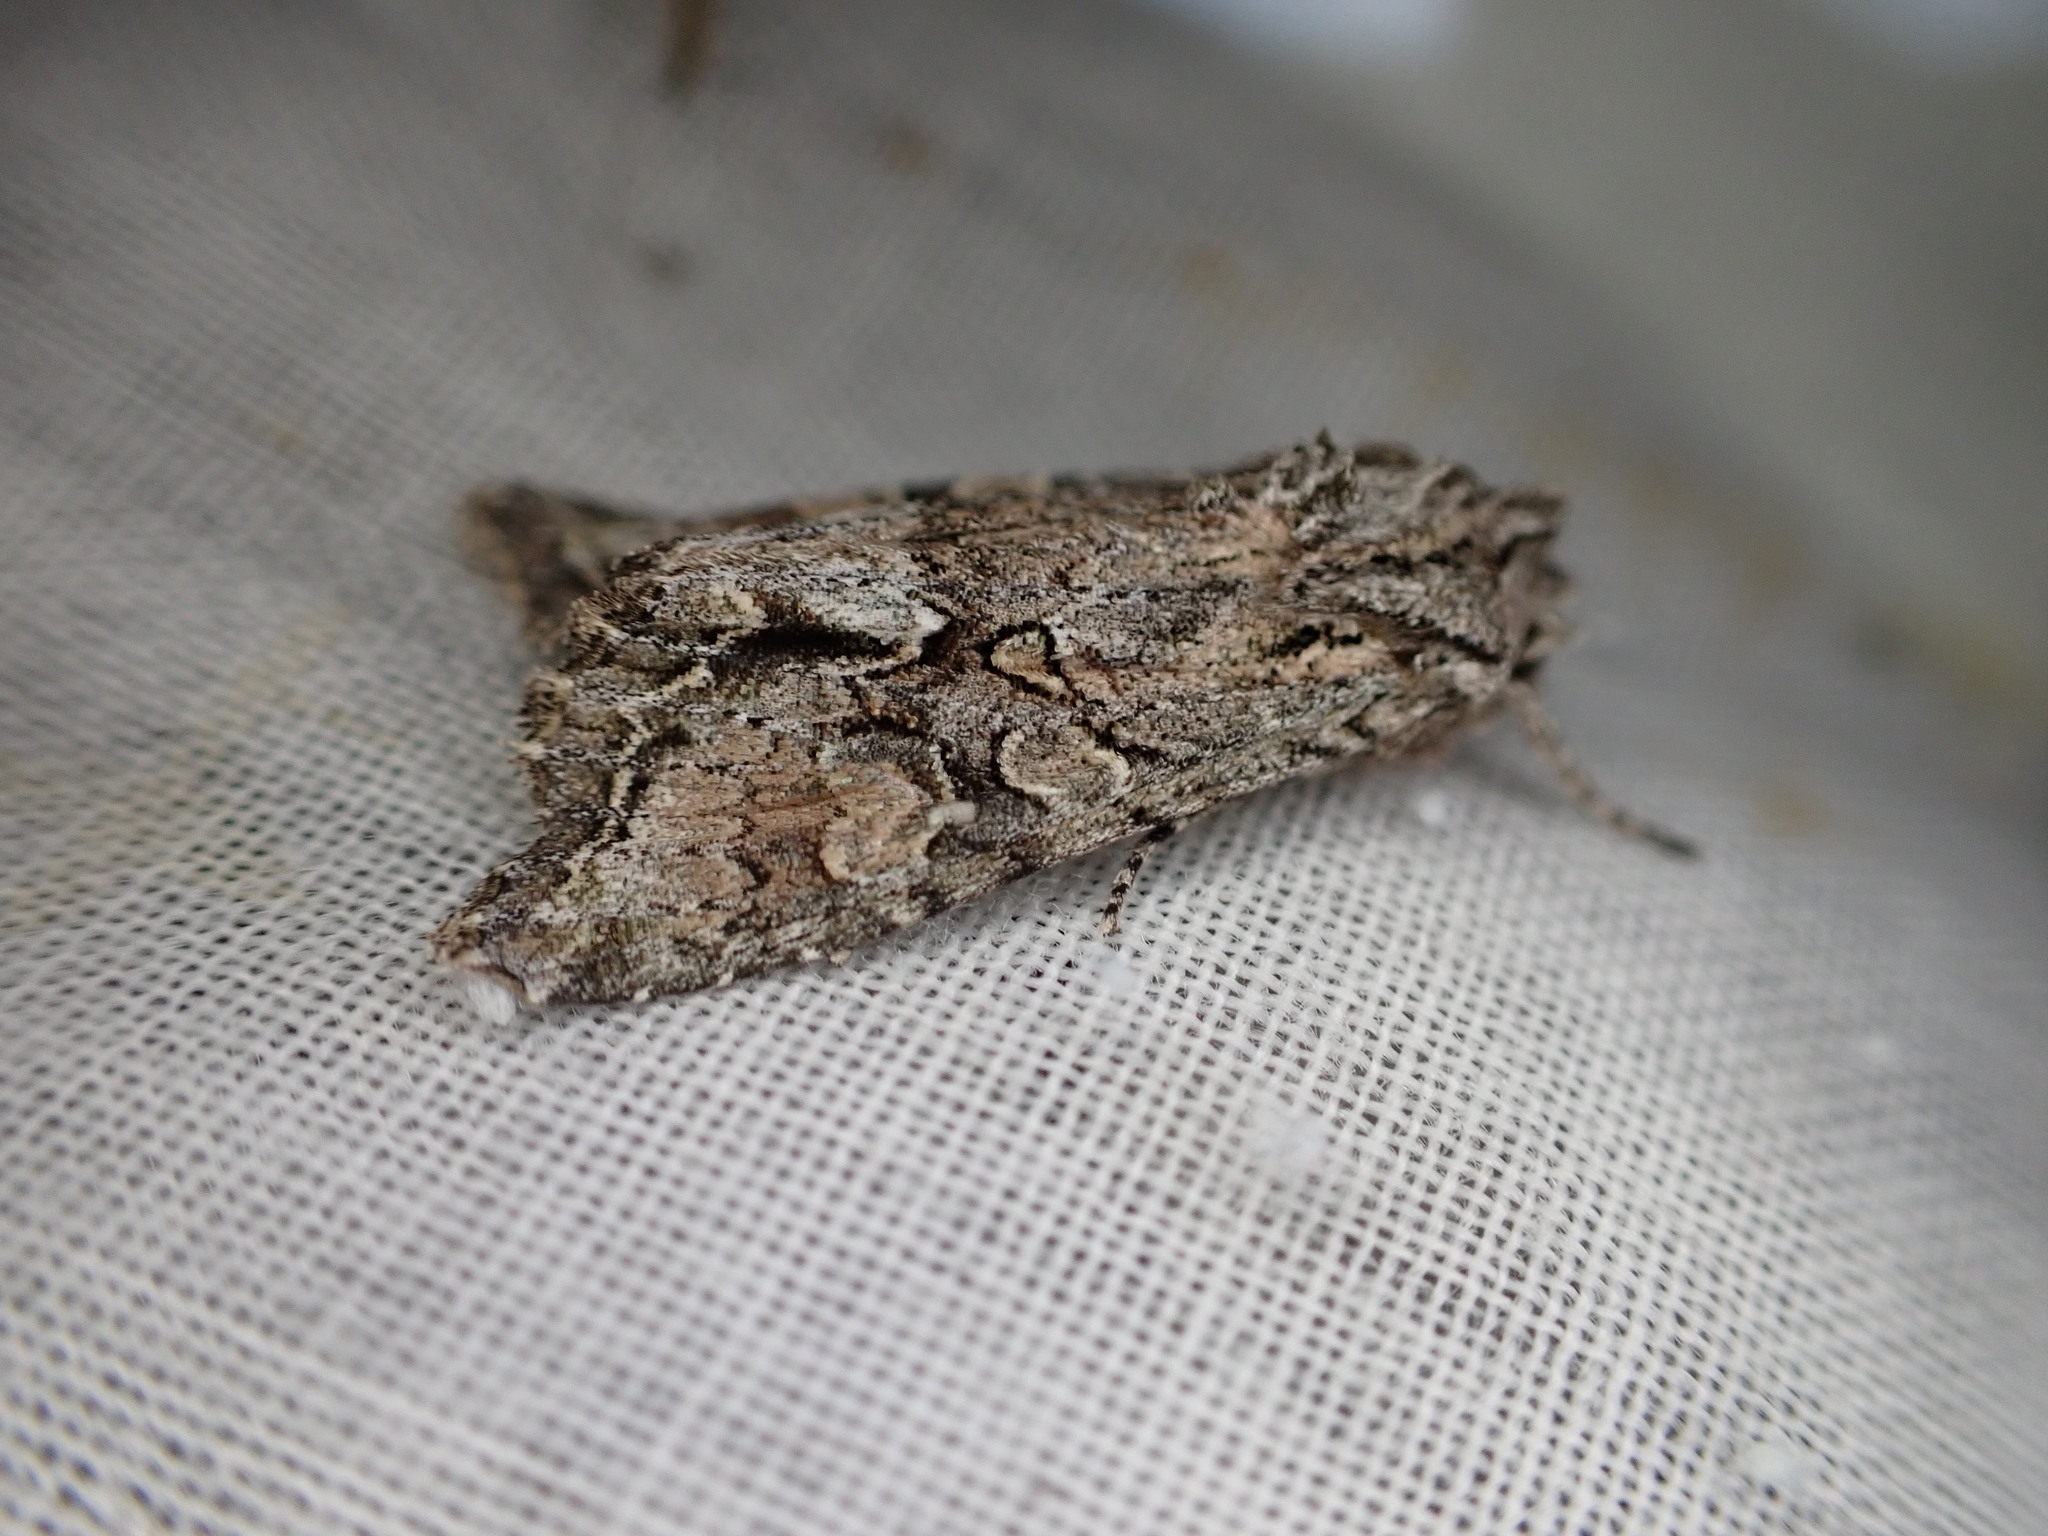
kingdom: Animalia
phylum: Arthropoda
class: Insecta
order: Lepidoptera
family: Noctuidae
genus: Ichneutica
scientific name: Ichneutica mutans
